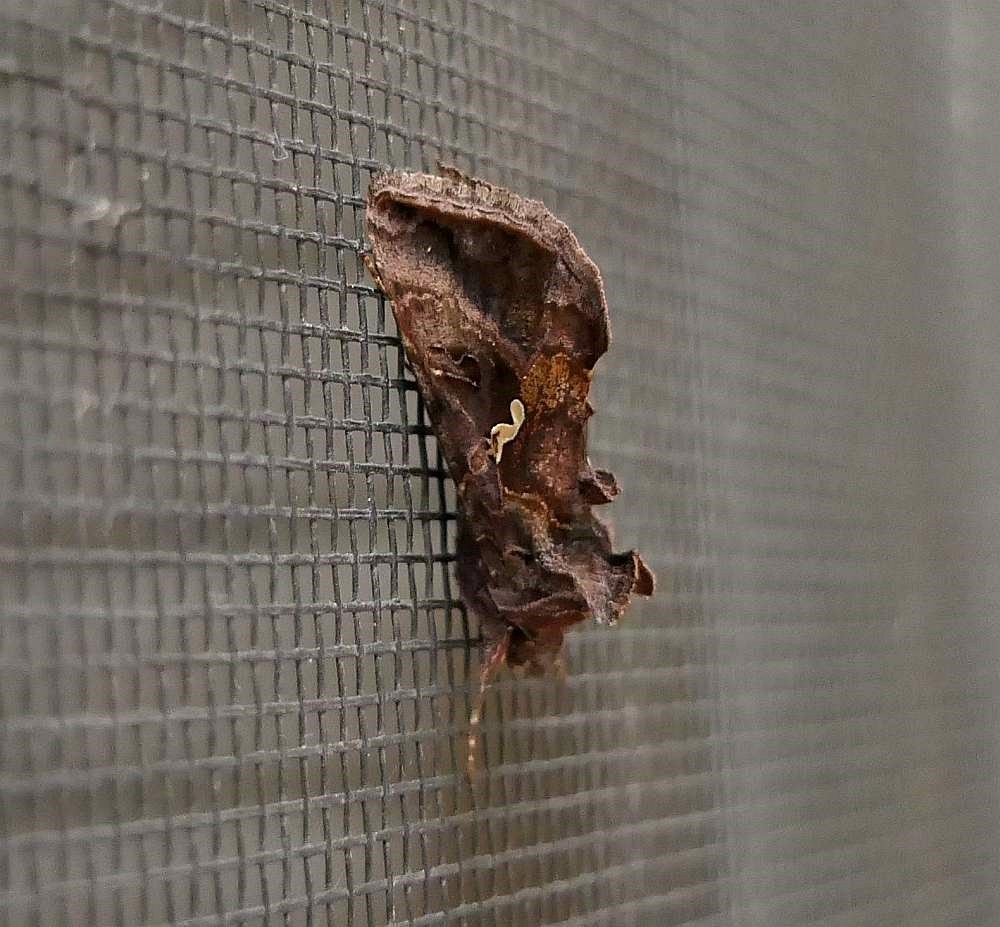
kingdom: Animalia
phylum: Arthropoda
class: Insecta
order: Lepidoptera
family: Noctuidae
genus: Autographa
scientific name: Autographa precationis
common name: Common looper moth
